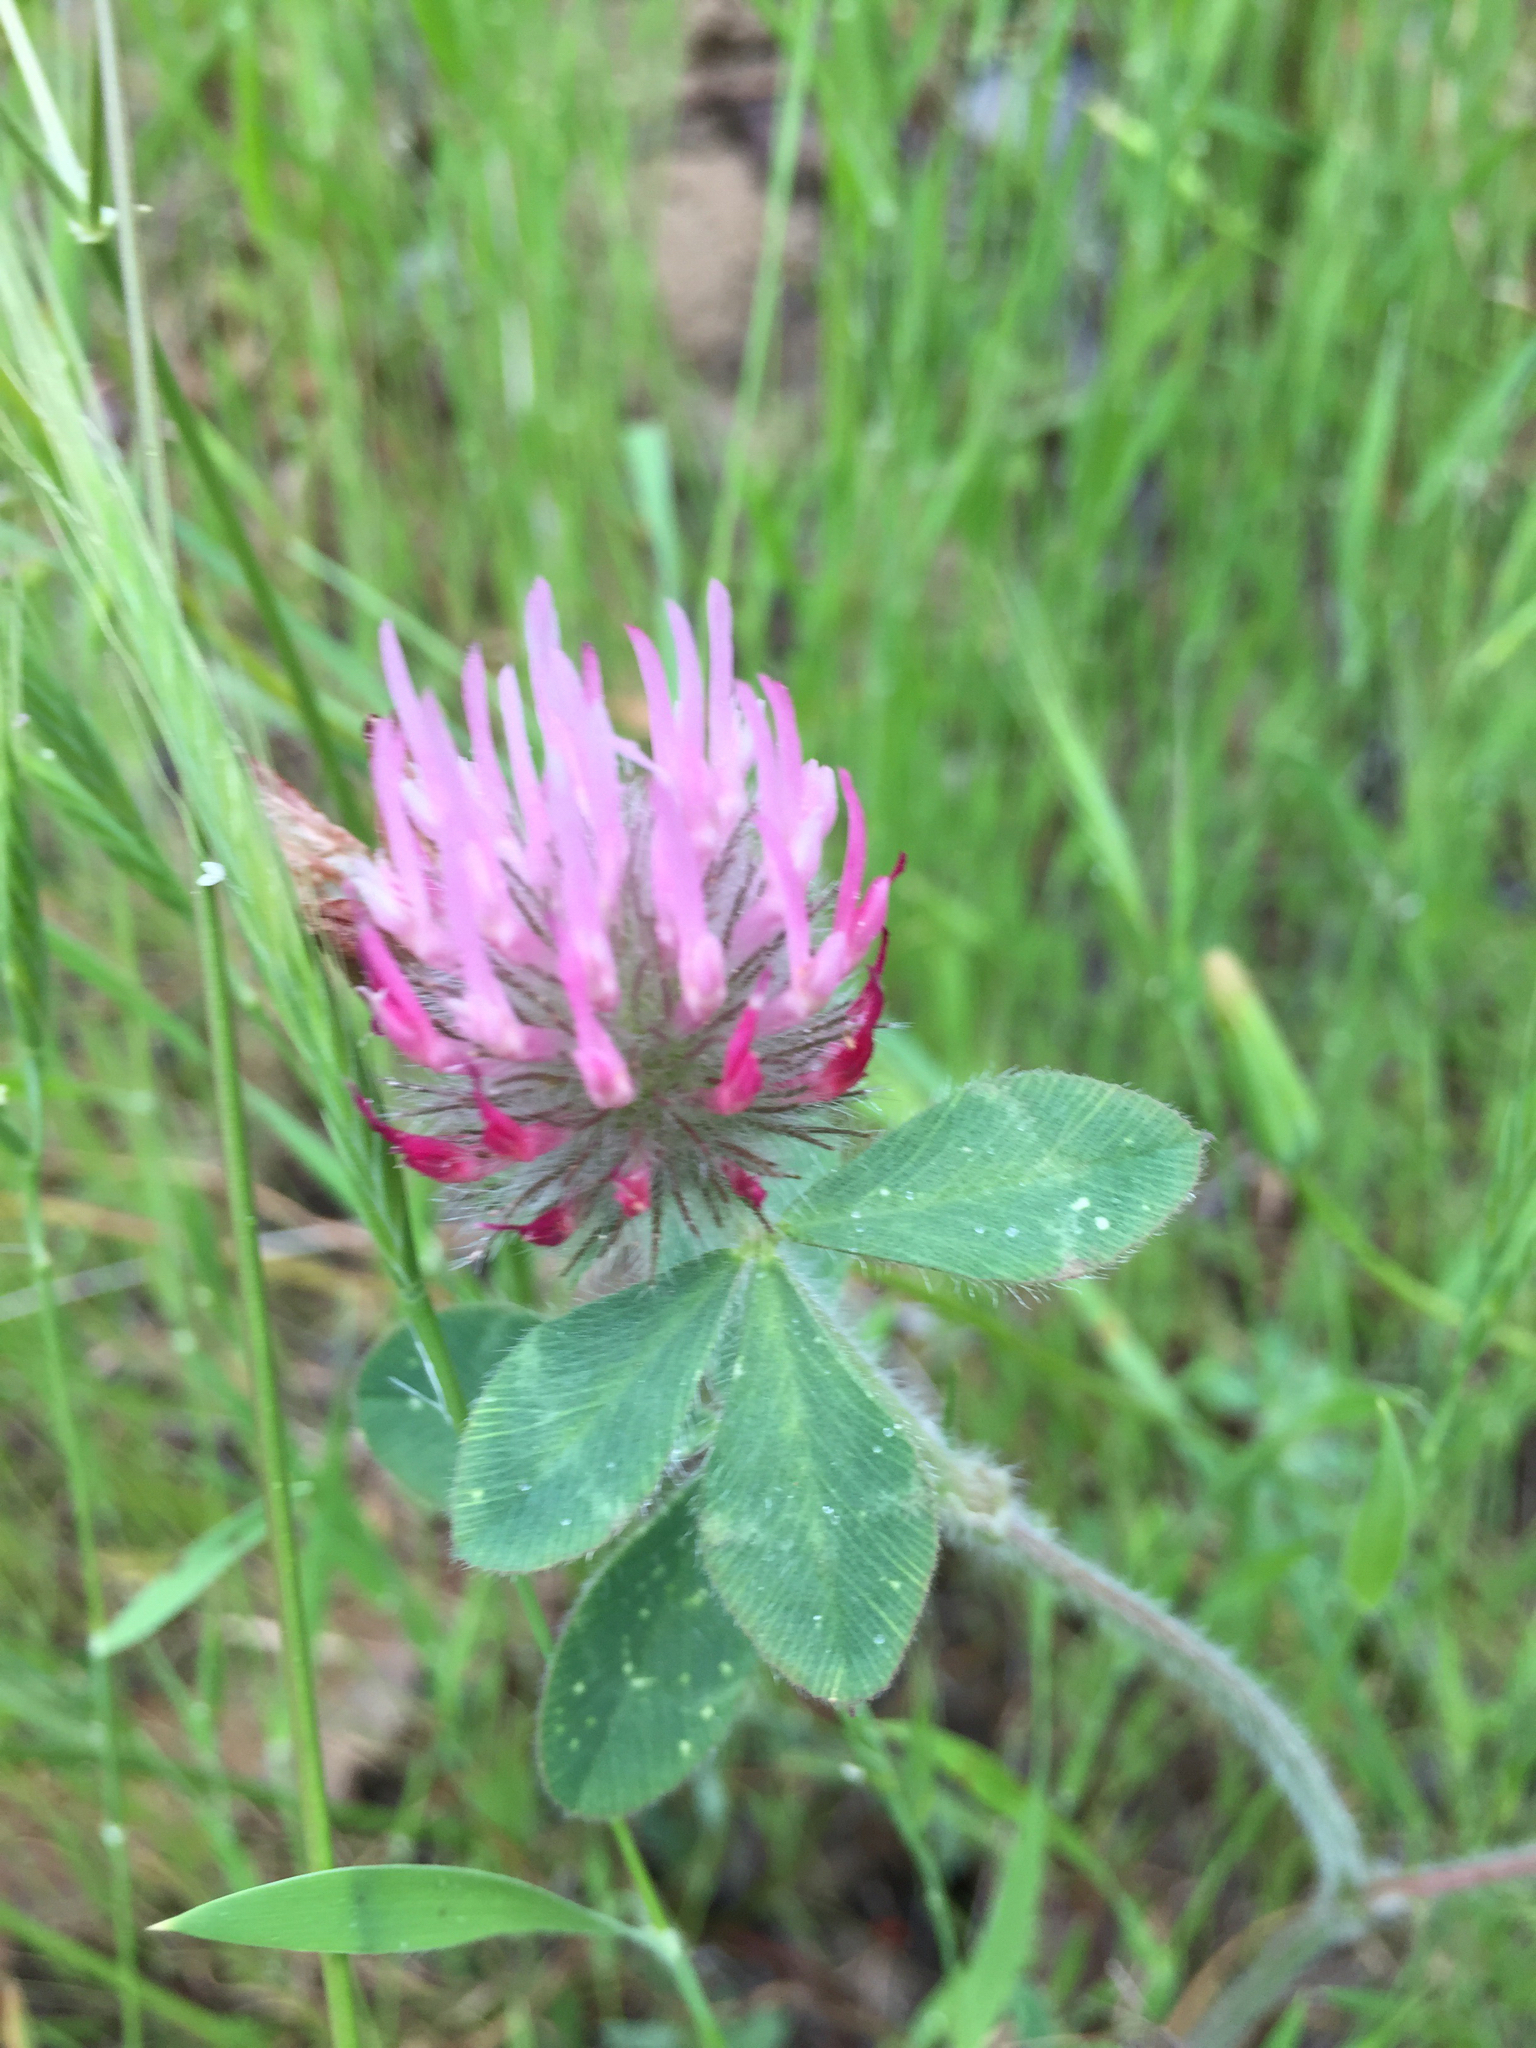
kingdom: Plantae
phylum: Tracheophyta
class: Magnoliopsida
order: Fabales
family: Fabaceae
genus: Trifolium
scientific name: Trifolium hirtum
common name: Rose clover
